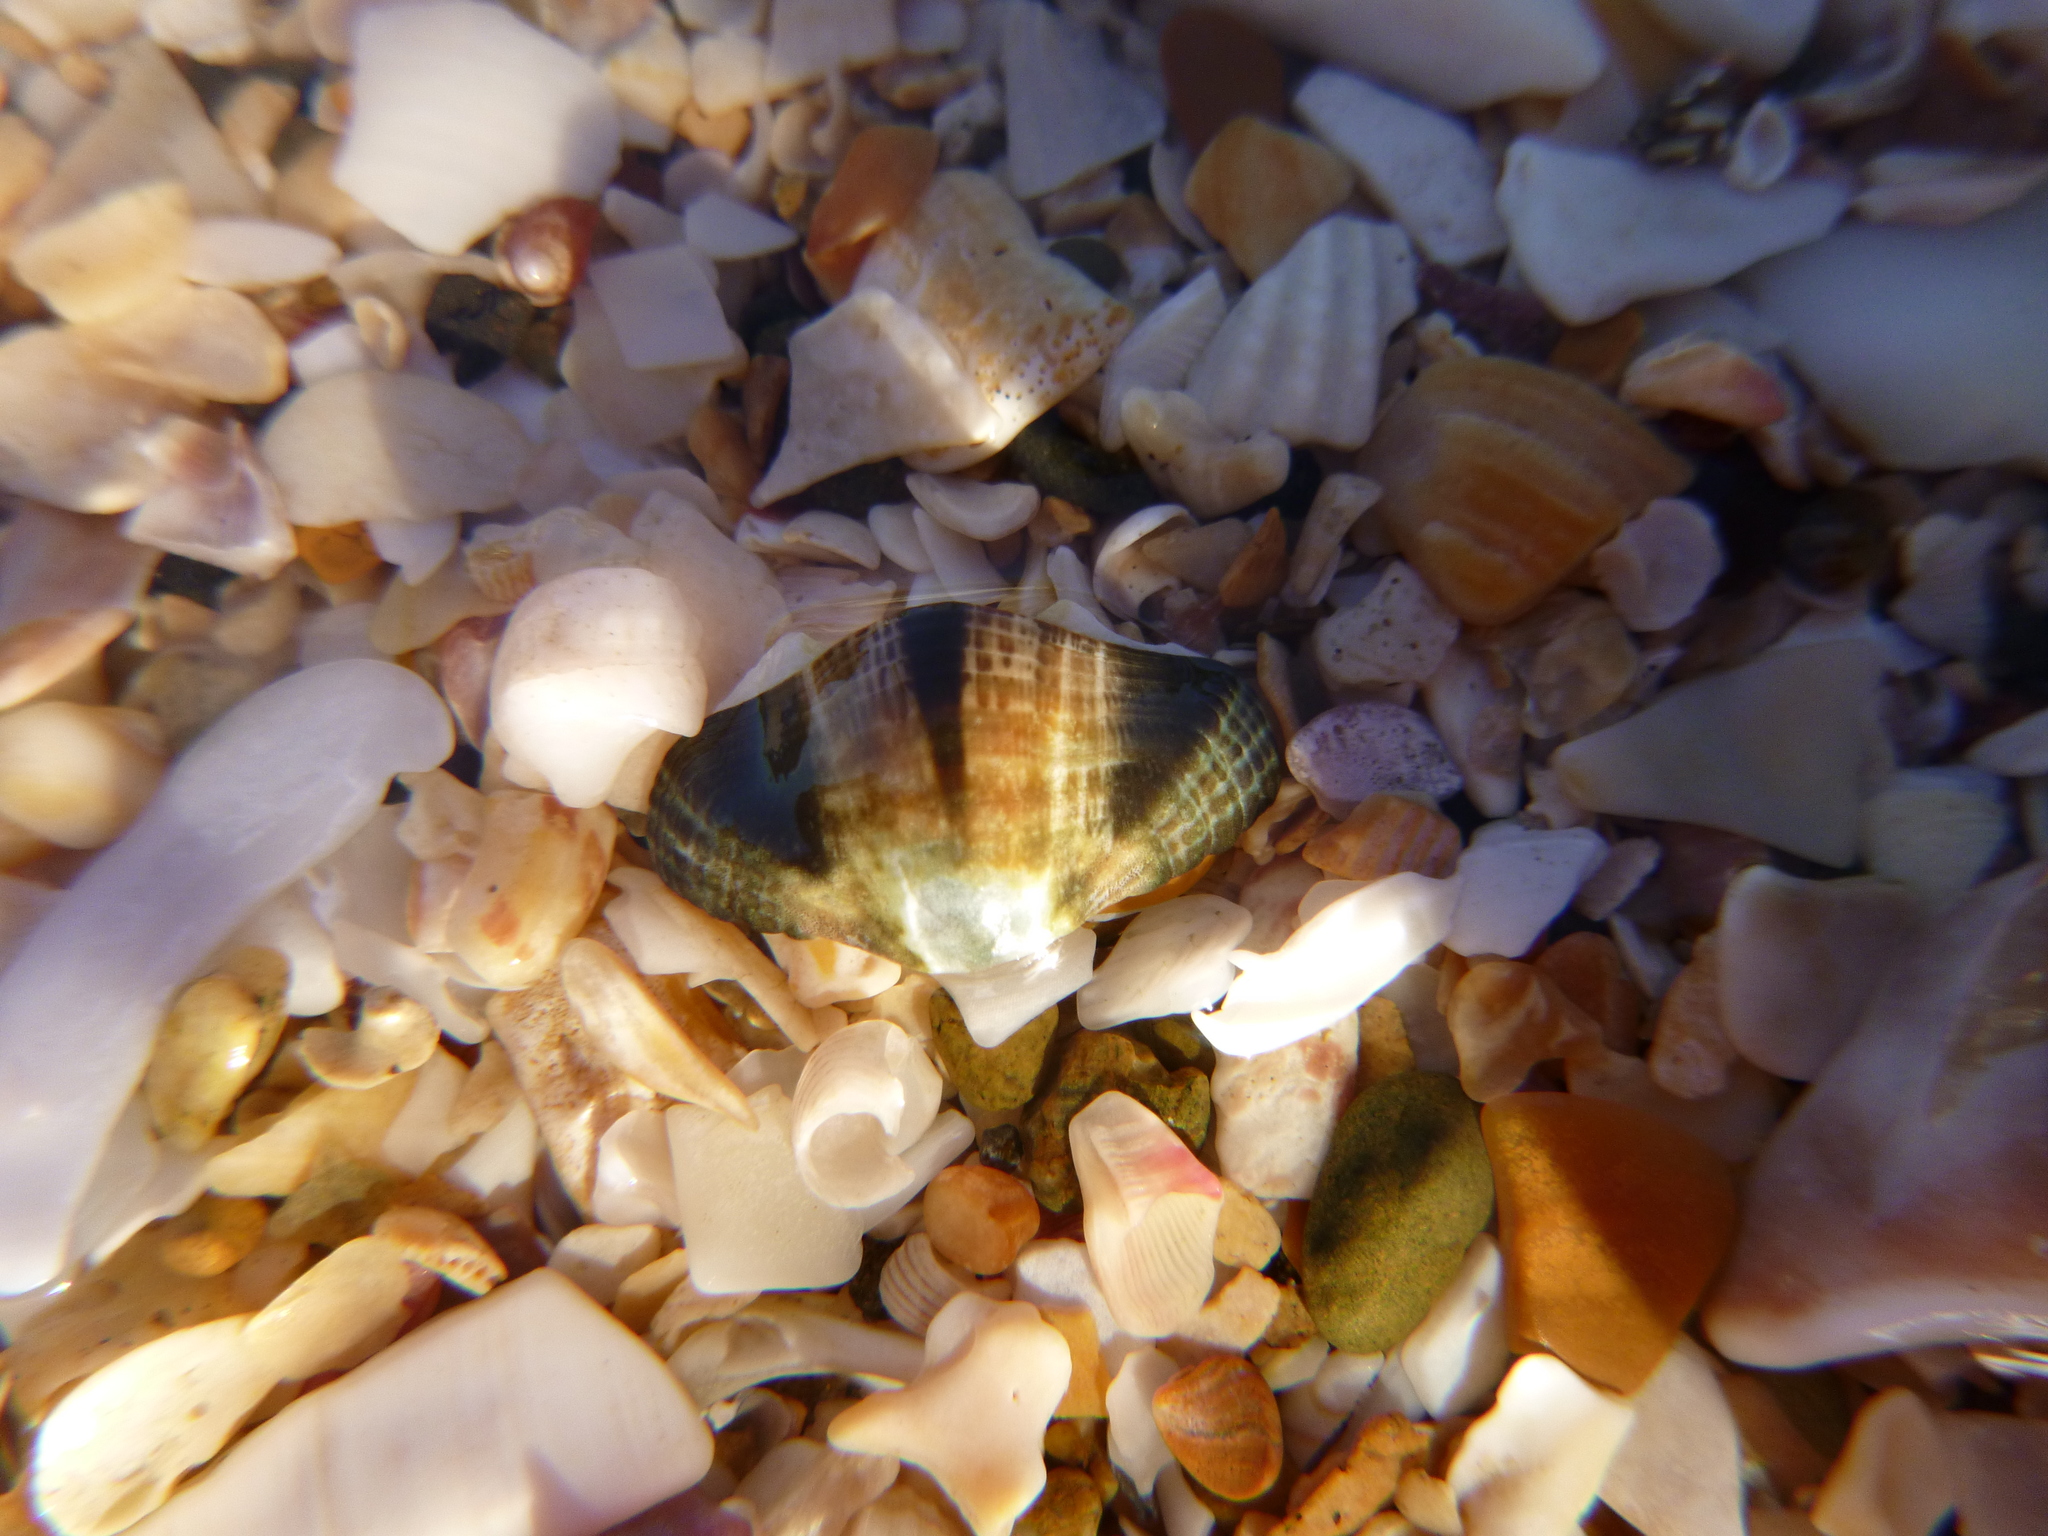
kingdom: Animalia
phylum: Mollusca
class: Polyplacophora
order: Chitonida
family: Chitonidae
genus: Sypharochiton
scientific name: Sypharochiton pelliserpentis
